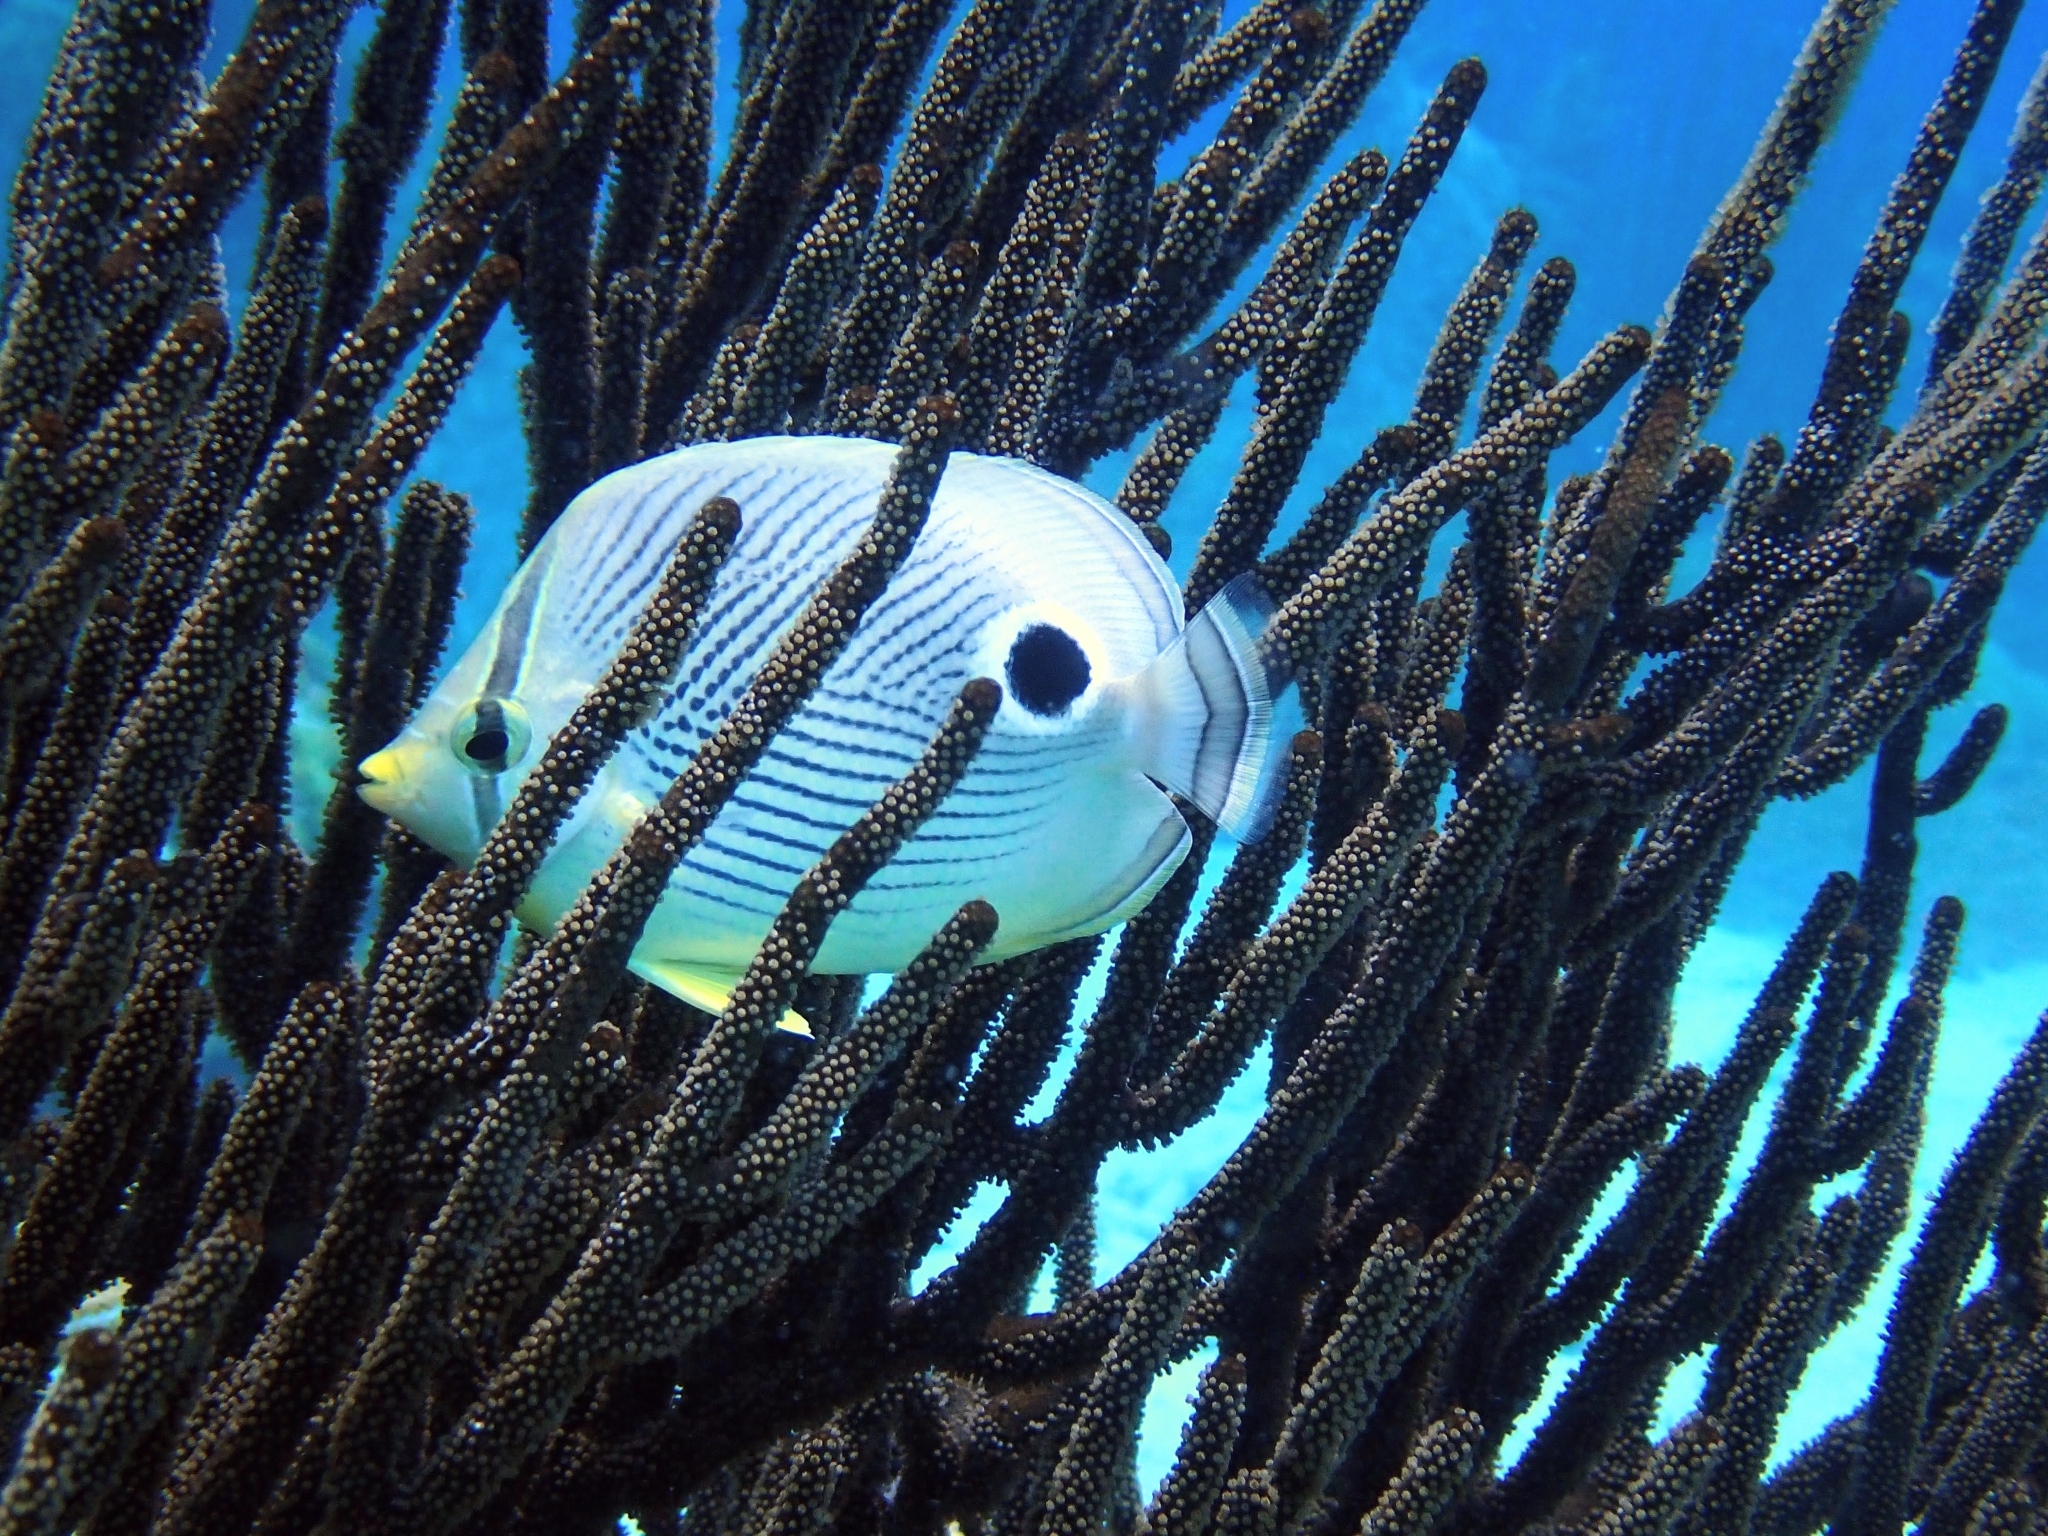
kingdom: Animalia
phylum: Chordata
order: Perciformes
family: Chaetodontidae
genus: Chaetodon
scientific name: Chaetodon capistratus
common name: Kete
